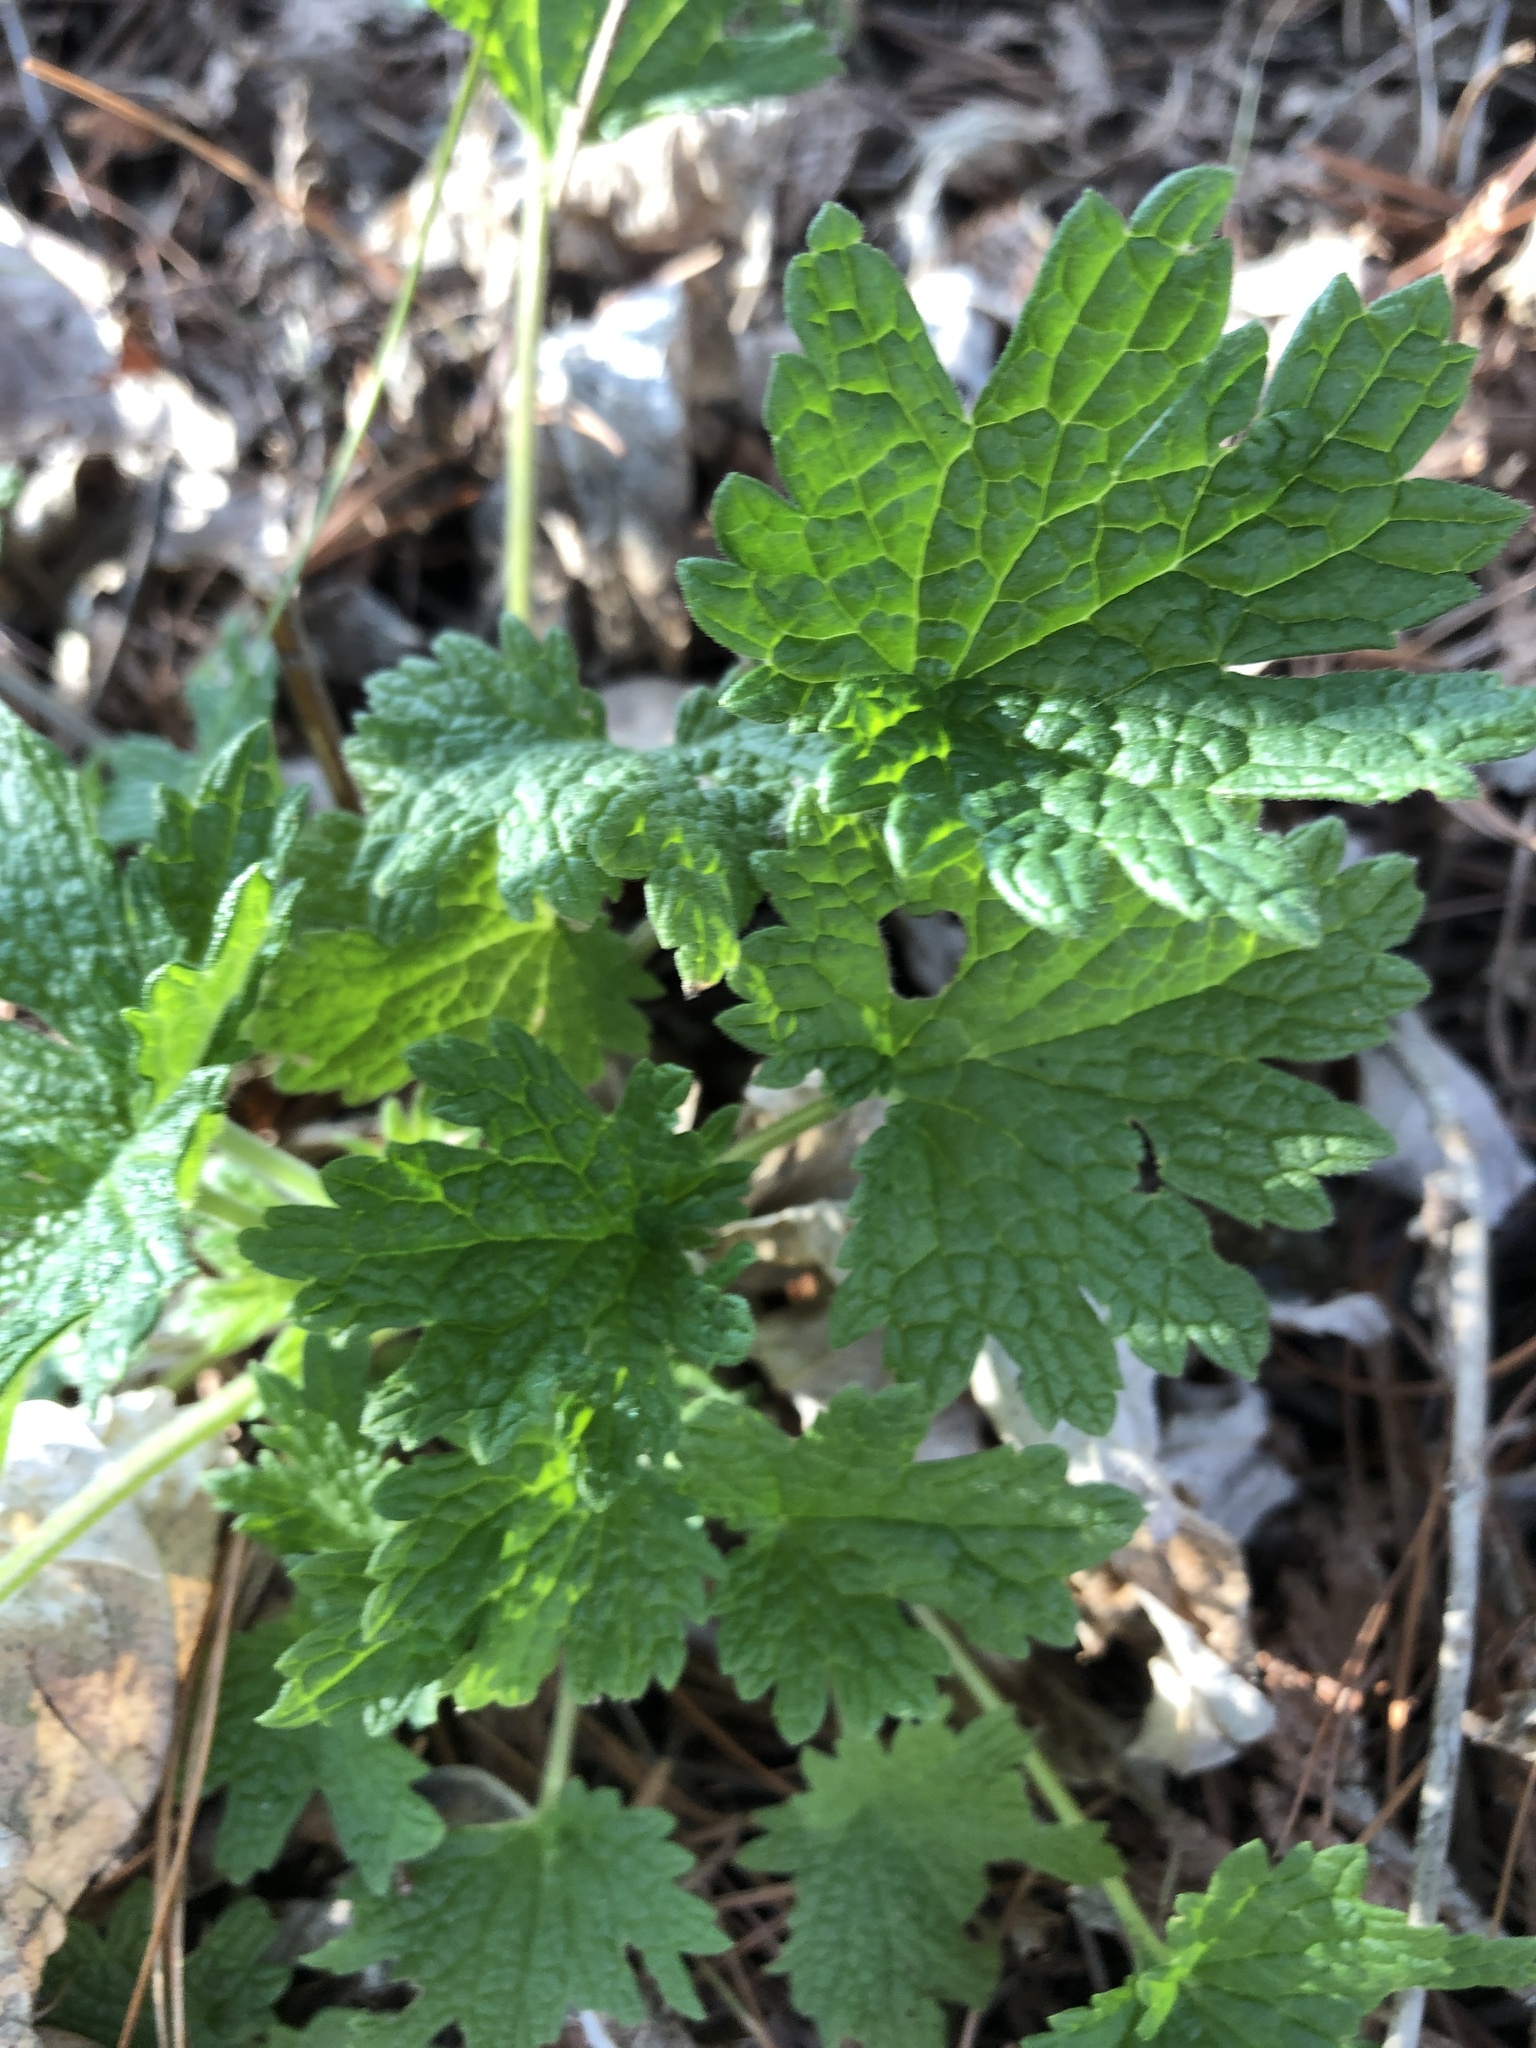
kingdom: Plantae
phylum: Tracheophyta
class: Magnoliopsida
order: Lamiales
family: Lamiaceae
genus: Leonurus
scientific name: Leonurus cardiaca
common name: Motherwort
